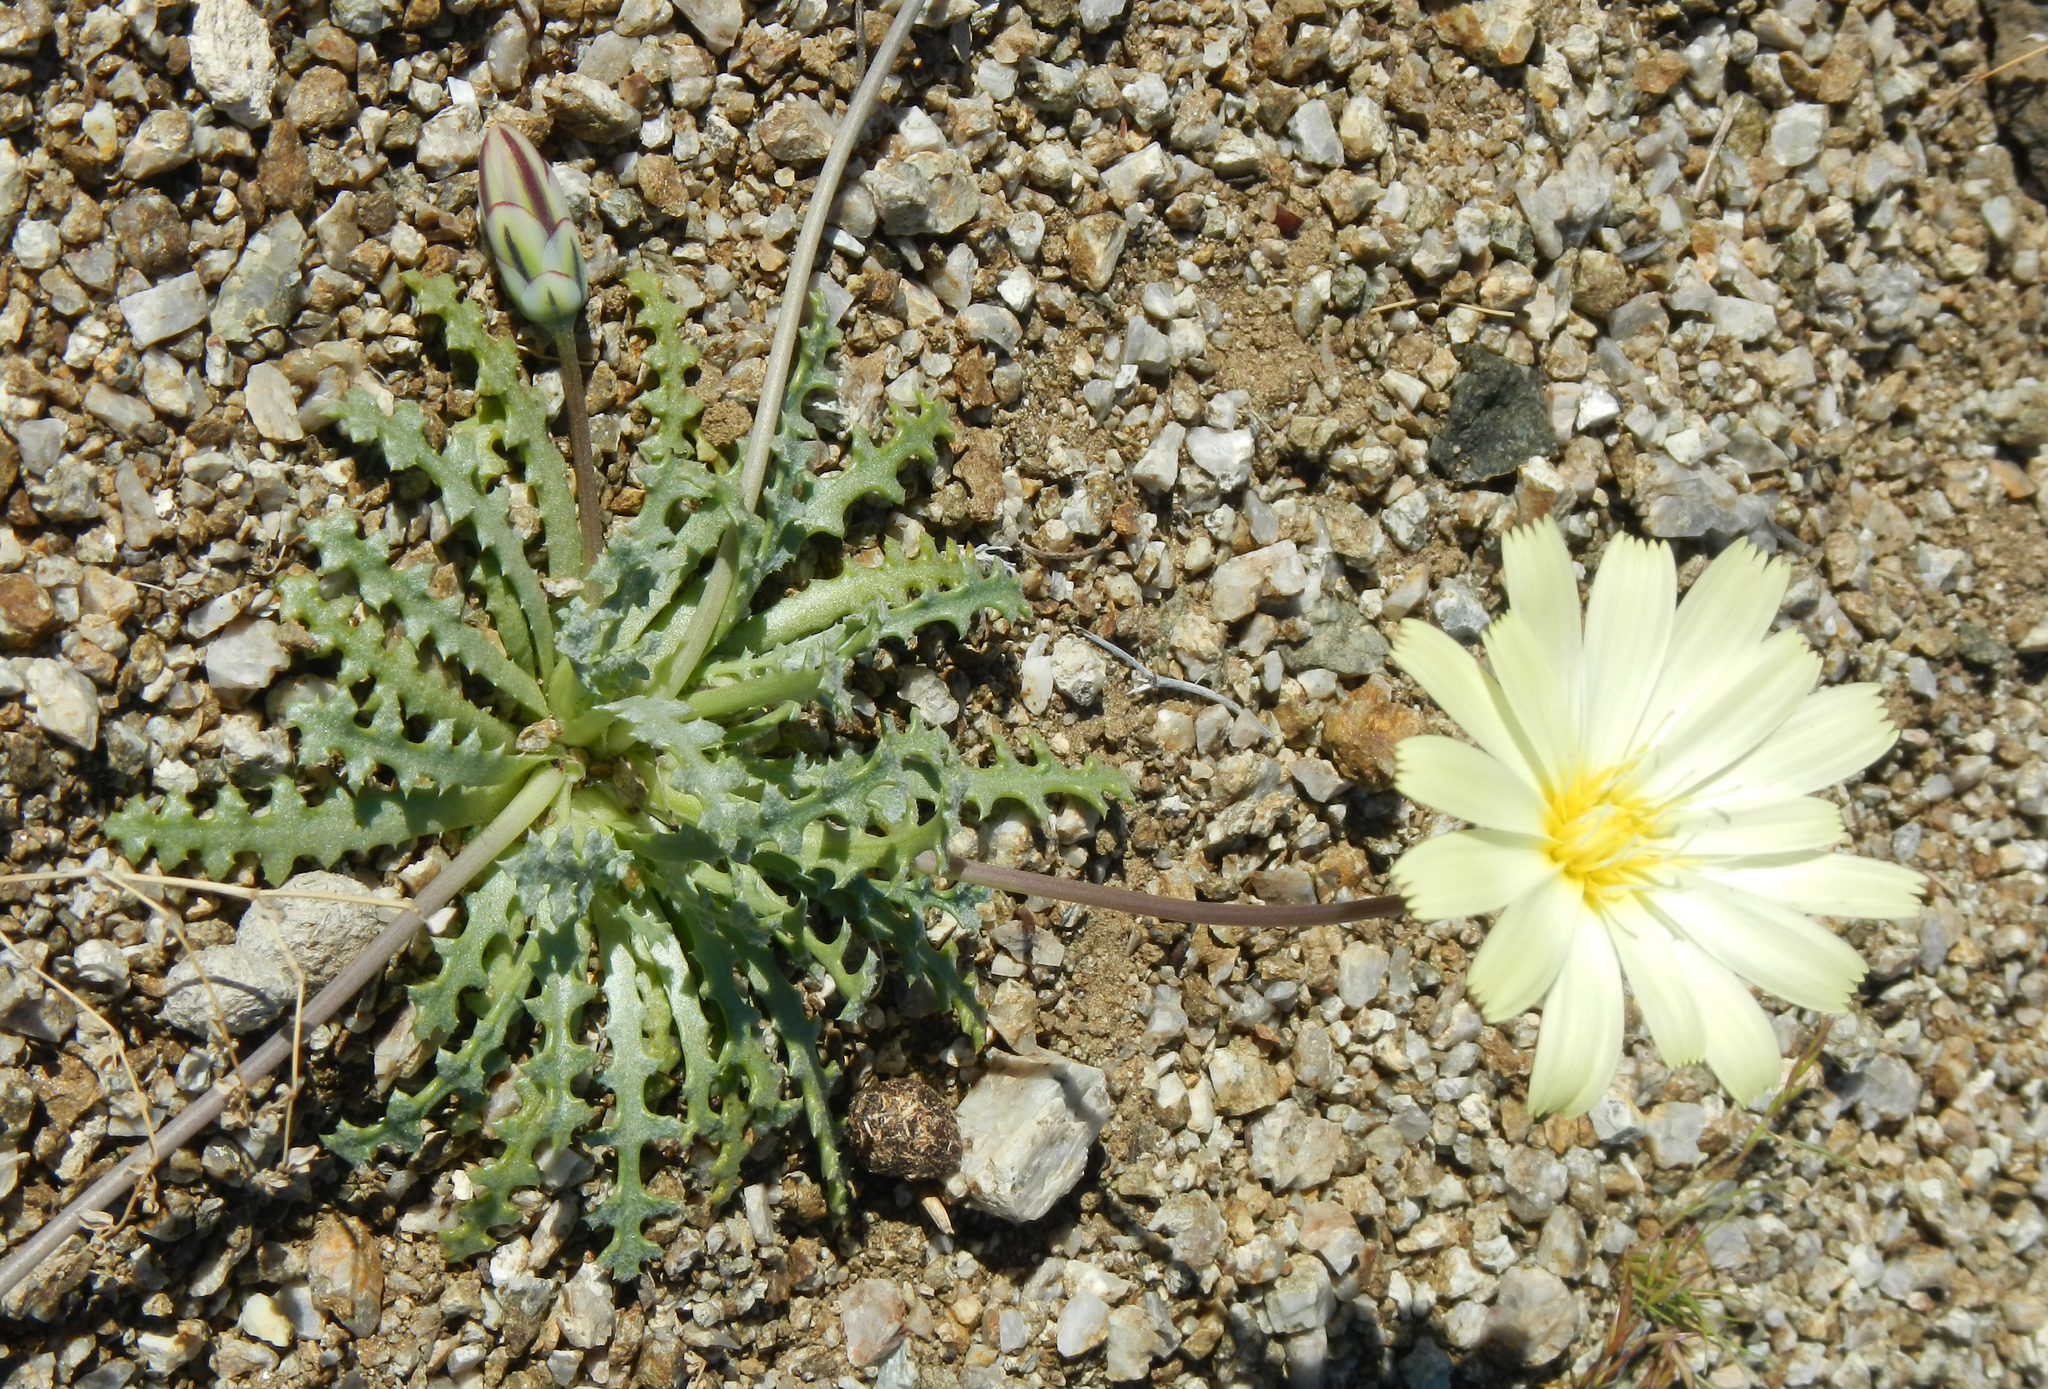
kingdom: Plantae
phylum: Tracheophyta
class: Magnoliopsida
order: Asterales
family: Asteraceae
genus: Anisocoma
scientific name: Anisocoma acaulis
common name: Scalebud
